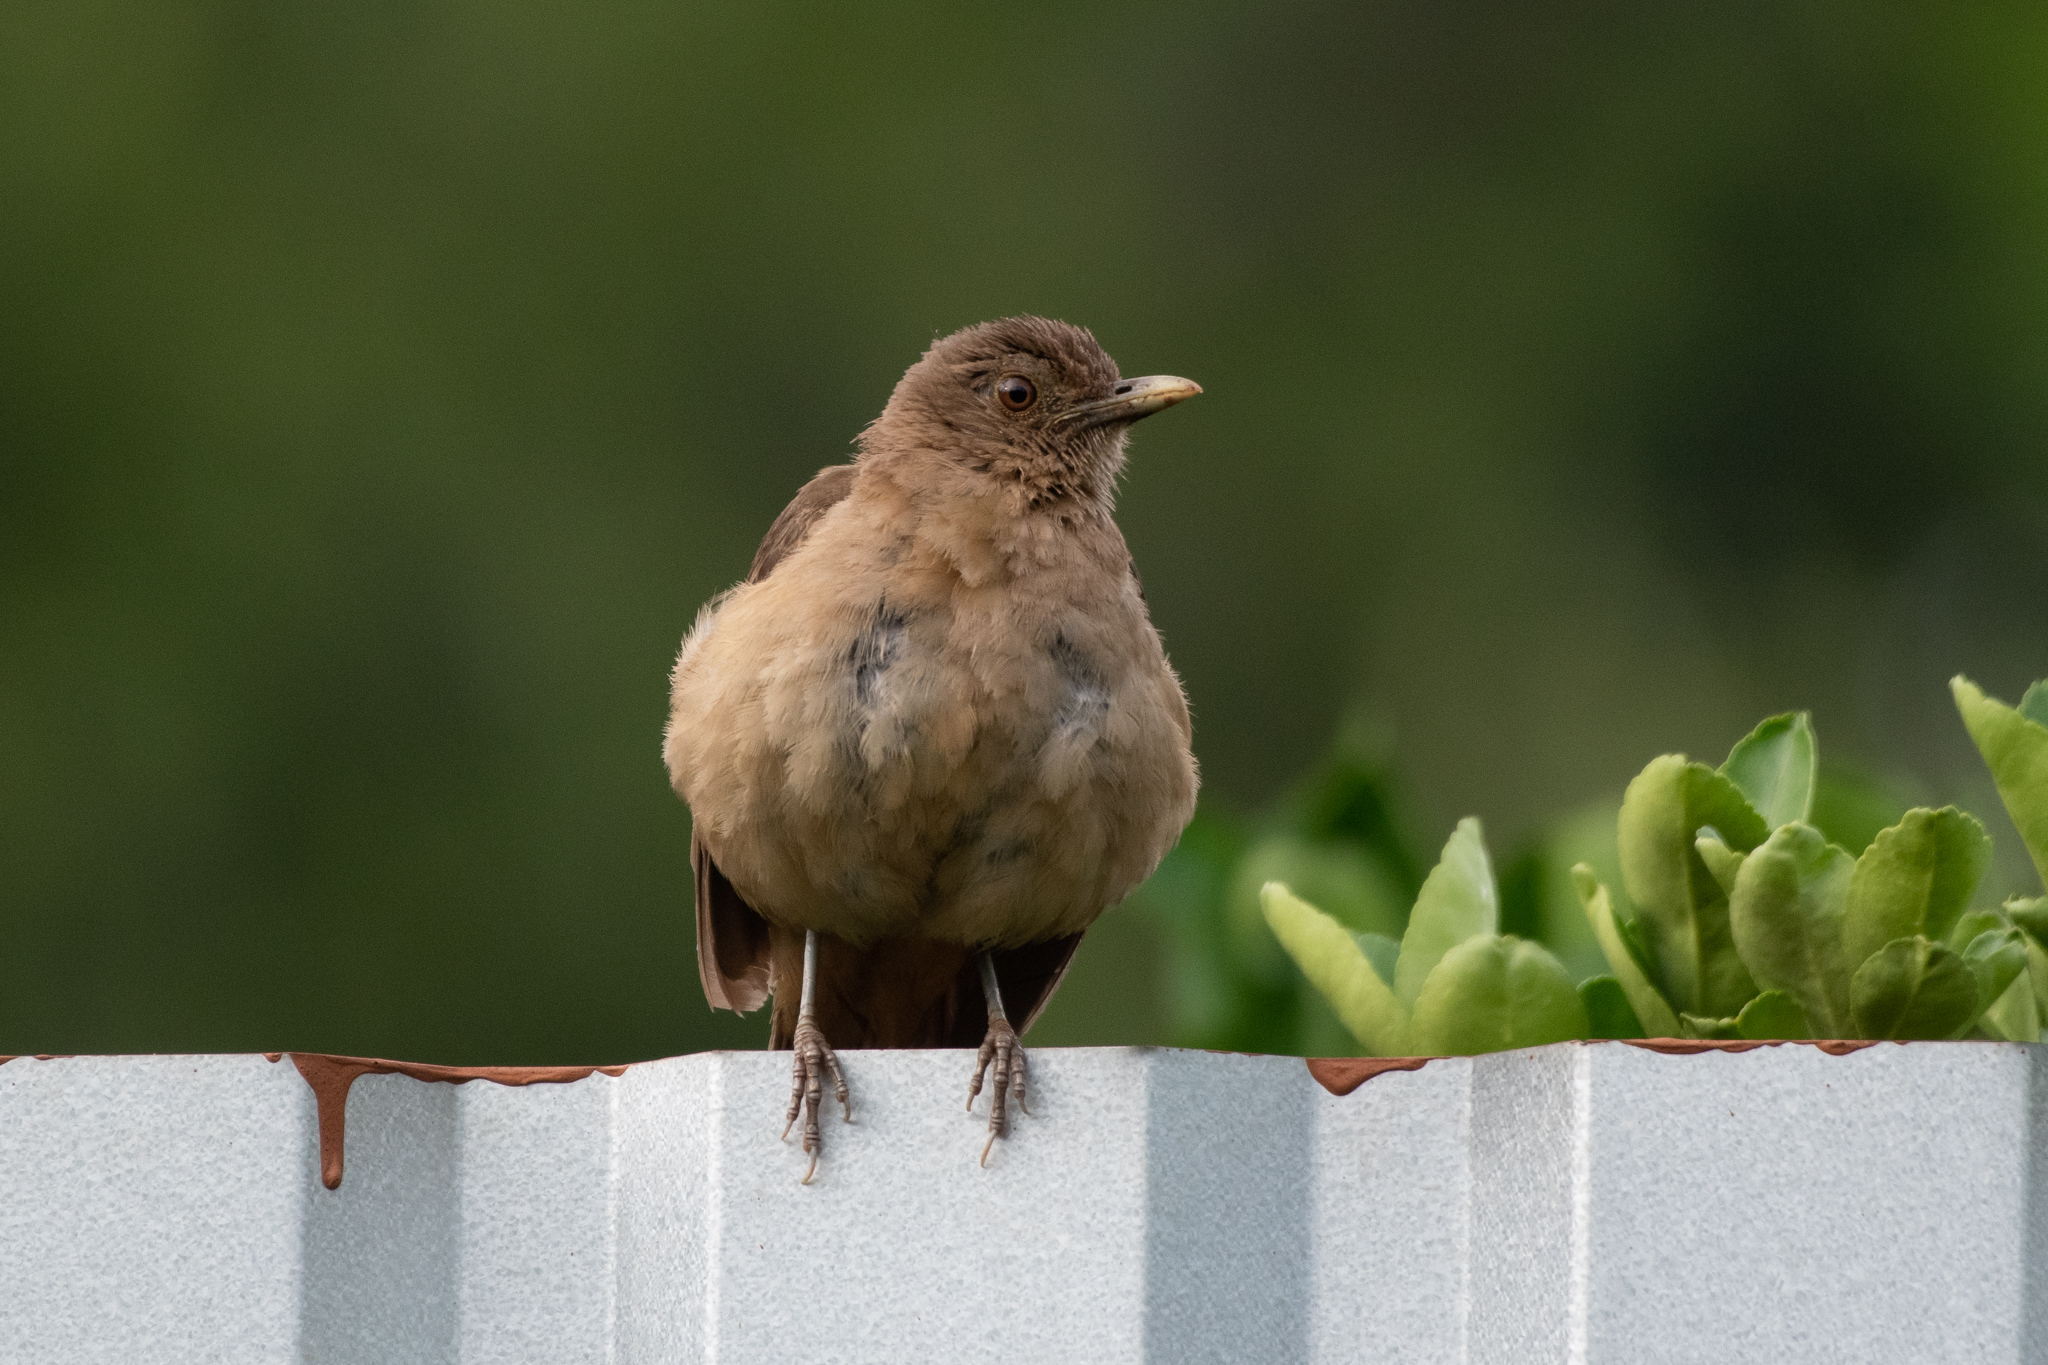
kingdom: Animalia
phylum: Chordata
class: Aves
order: Passeriformes
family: Turdidae
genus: Turdus
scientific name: Turdus grayi
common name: Clay-colored thrush
